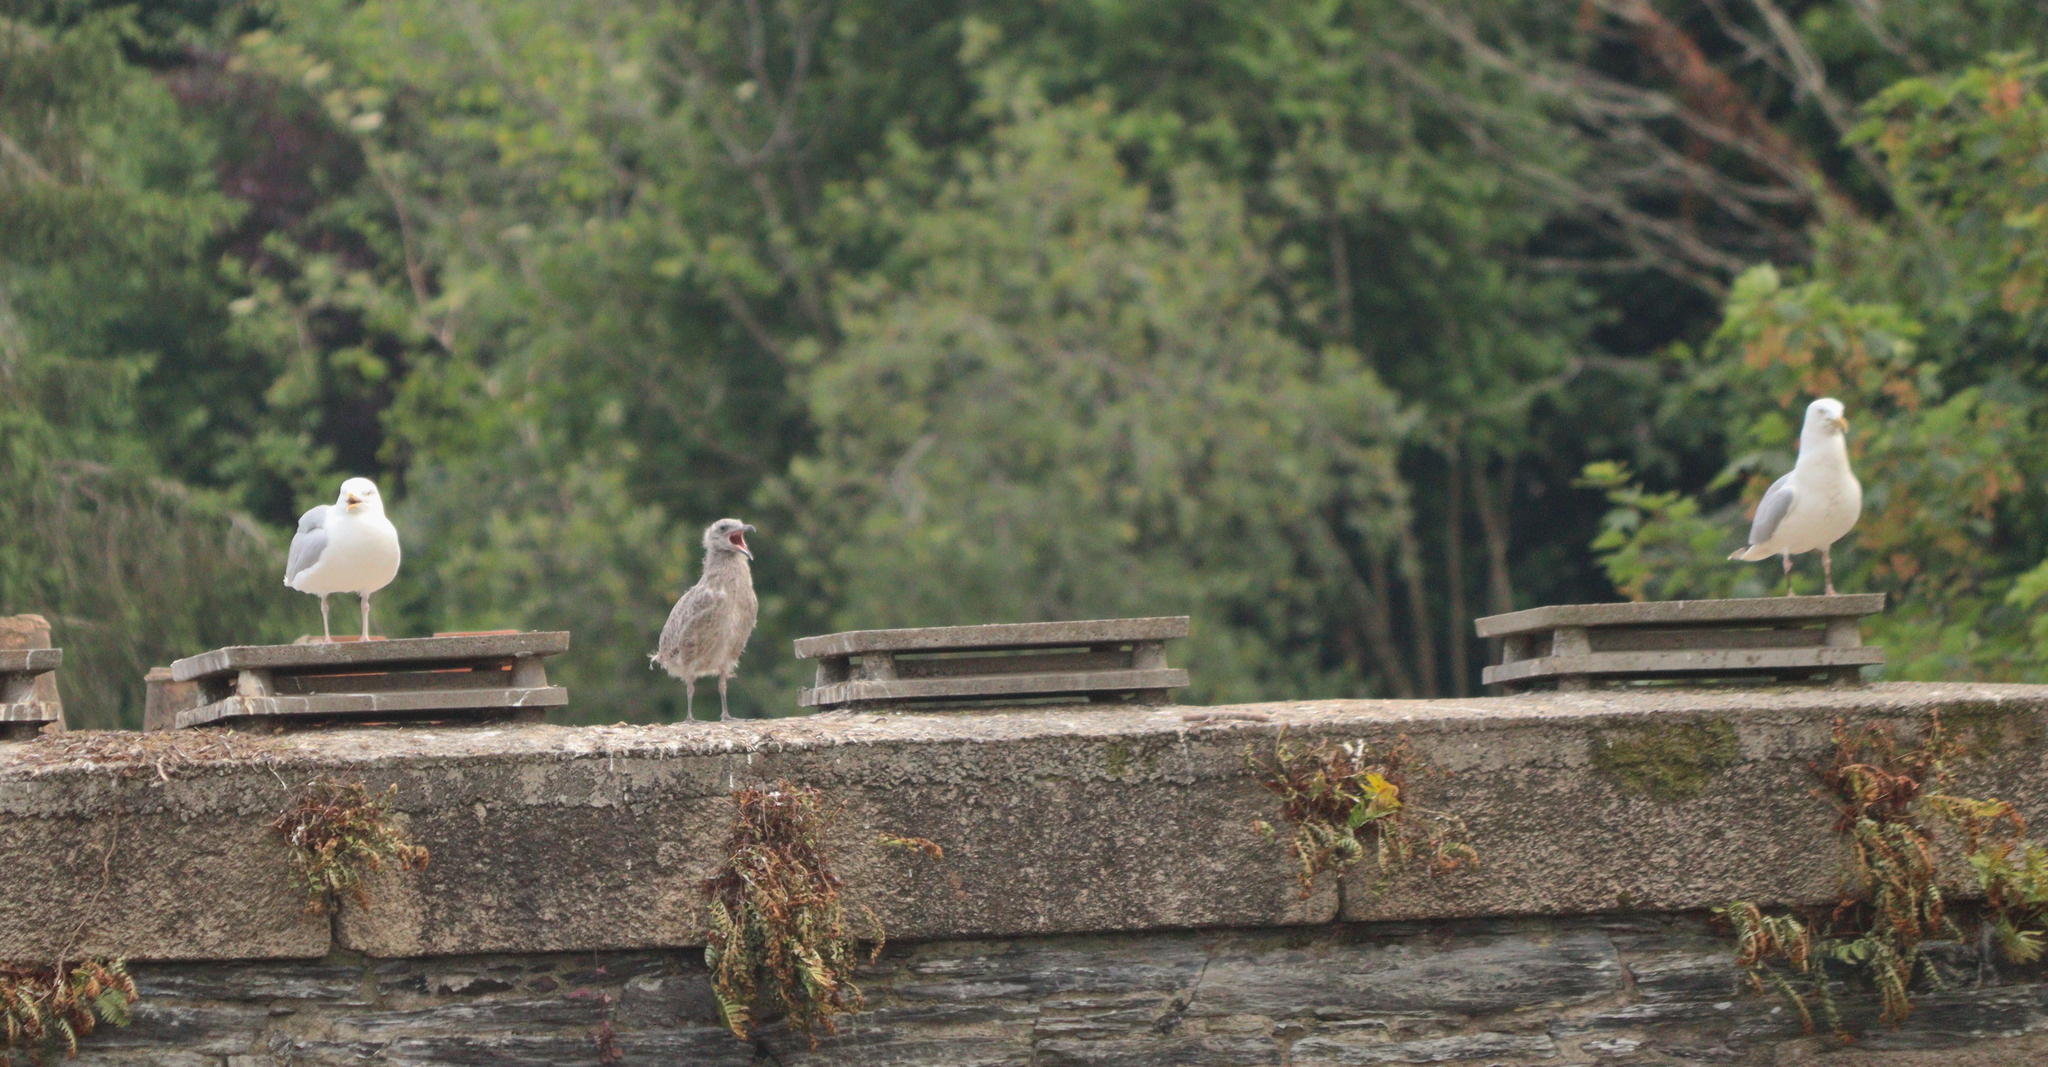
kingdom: Animalia
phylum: Chordata
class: Aves
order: Charadriiformes
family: Laridae
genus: Larus
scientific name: Larus argentatus
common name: Herring gull
